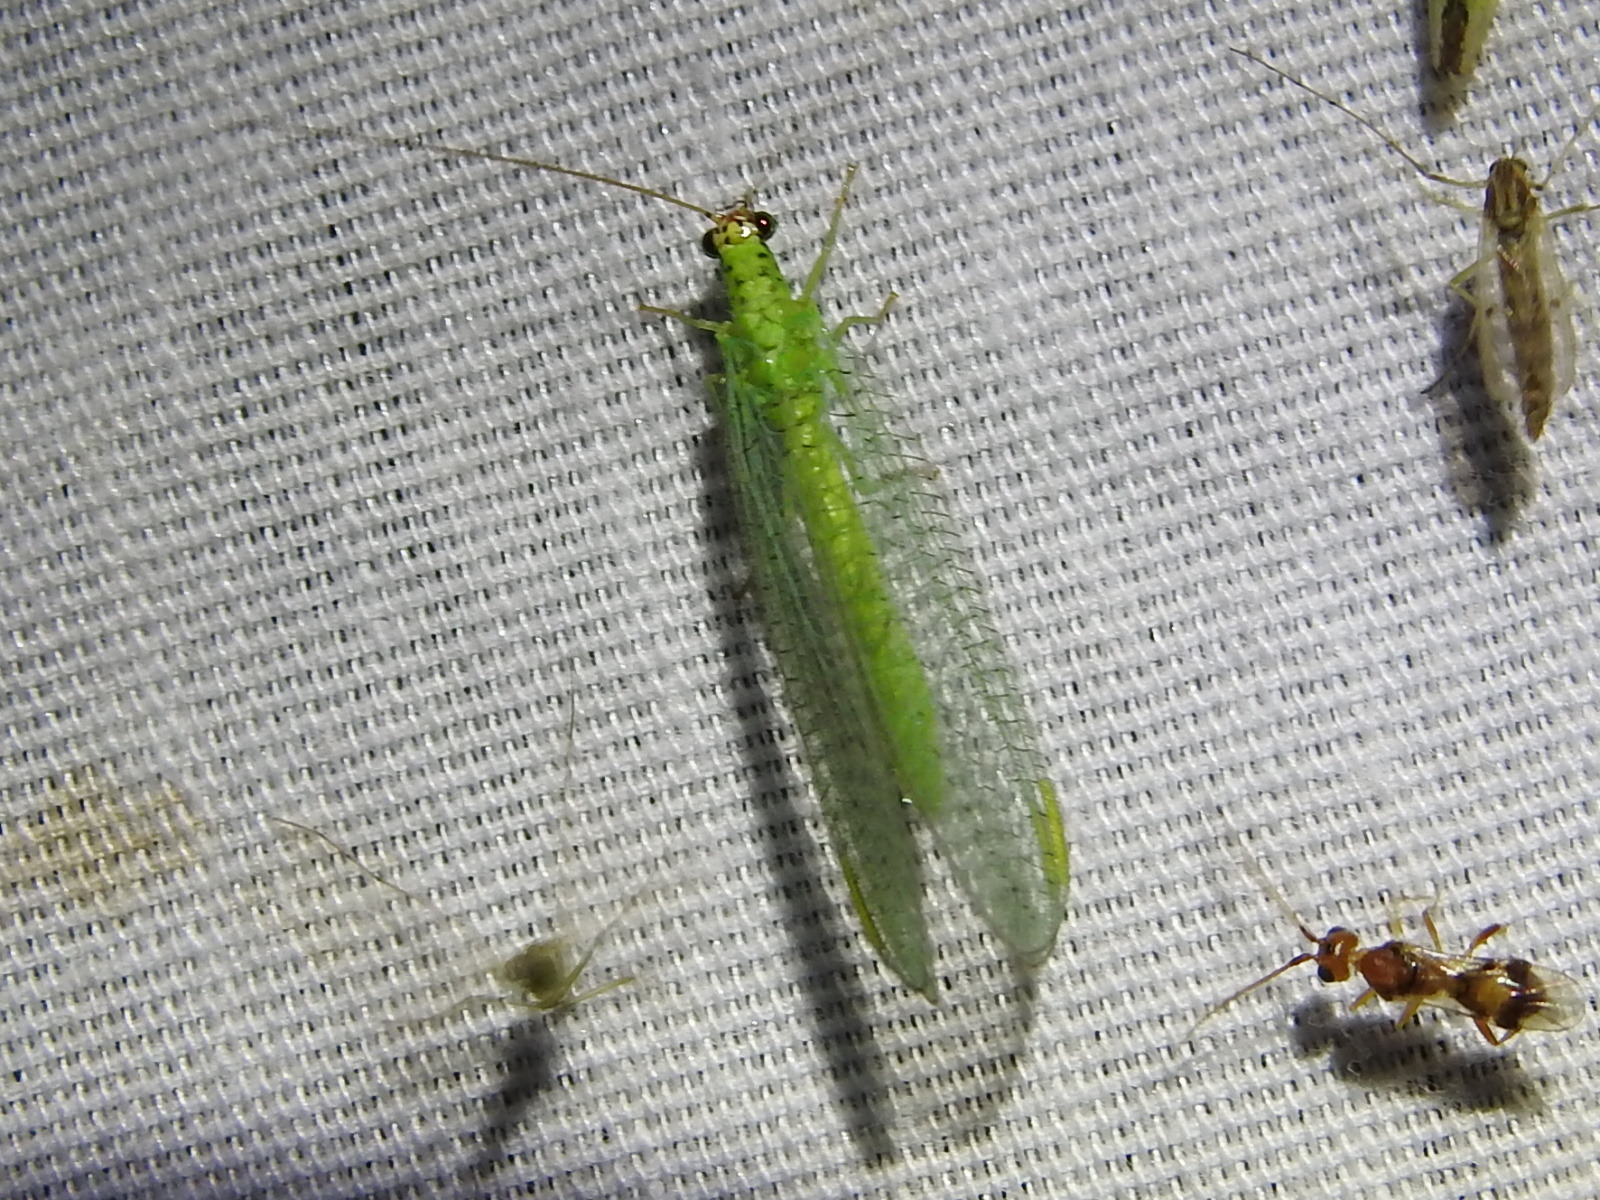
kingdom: Animalia
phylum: Arthropoda
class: Insecta
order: Neuroptera
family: Chrysopidae
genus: Chrysopa
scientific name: Chrysopa oculata
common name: Golden-eyed lacewing
